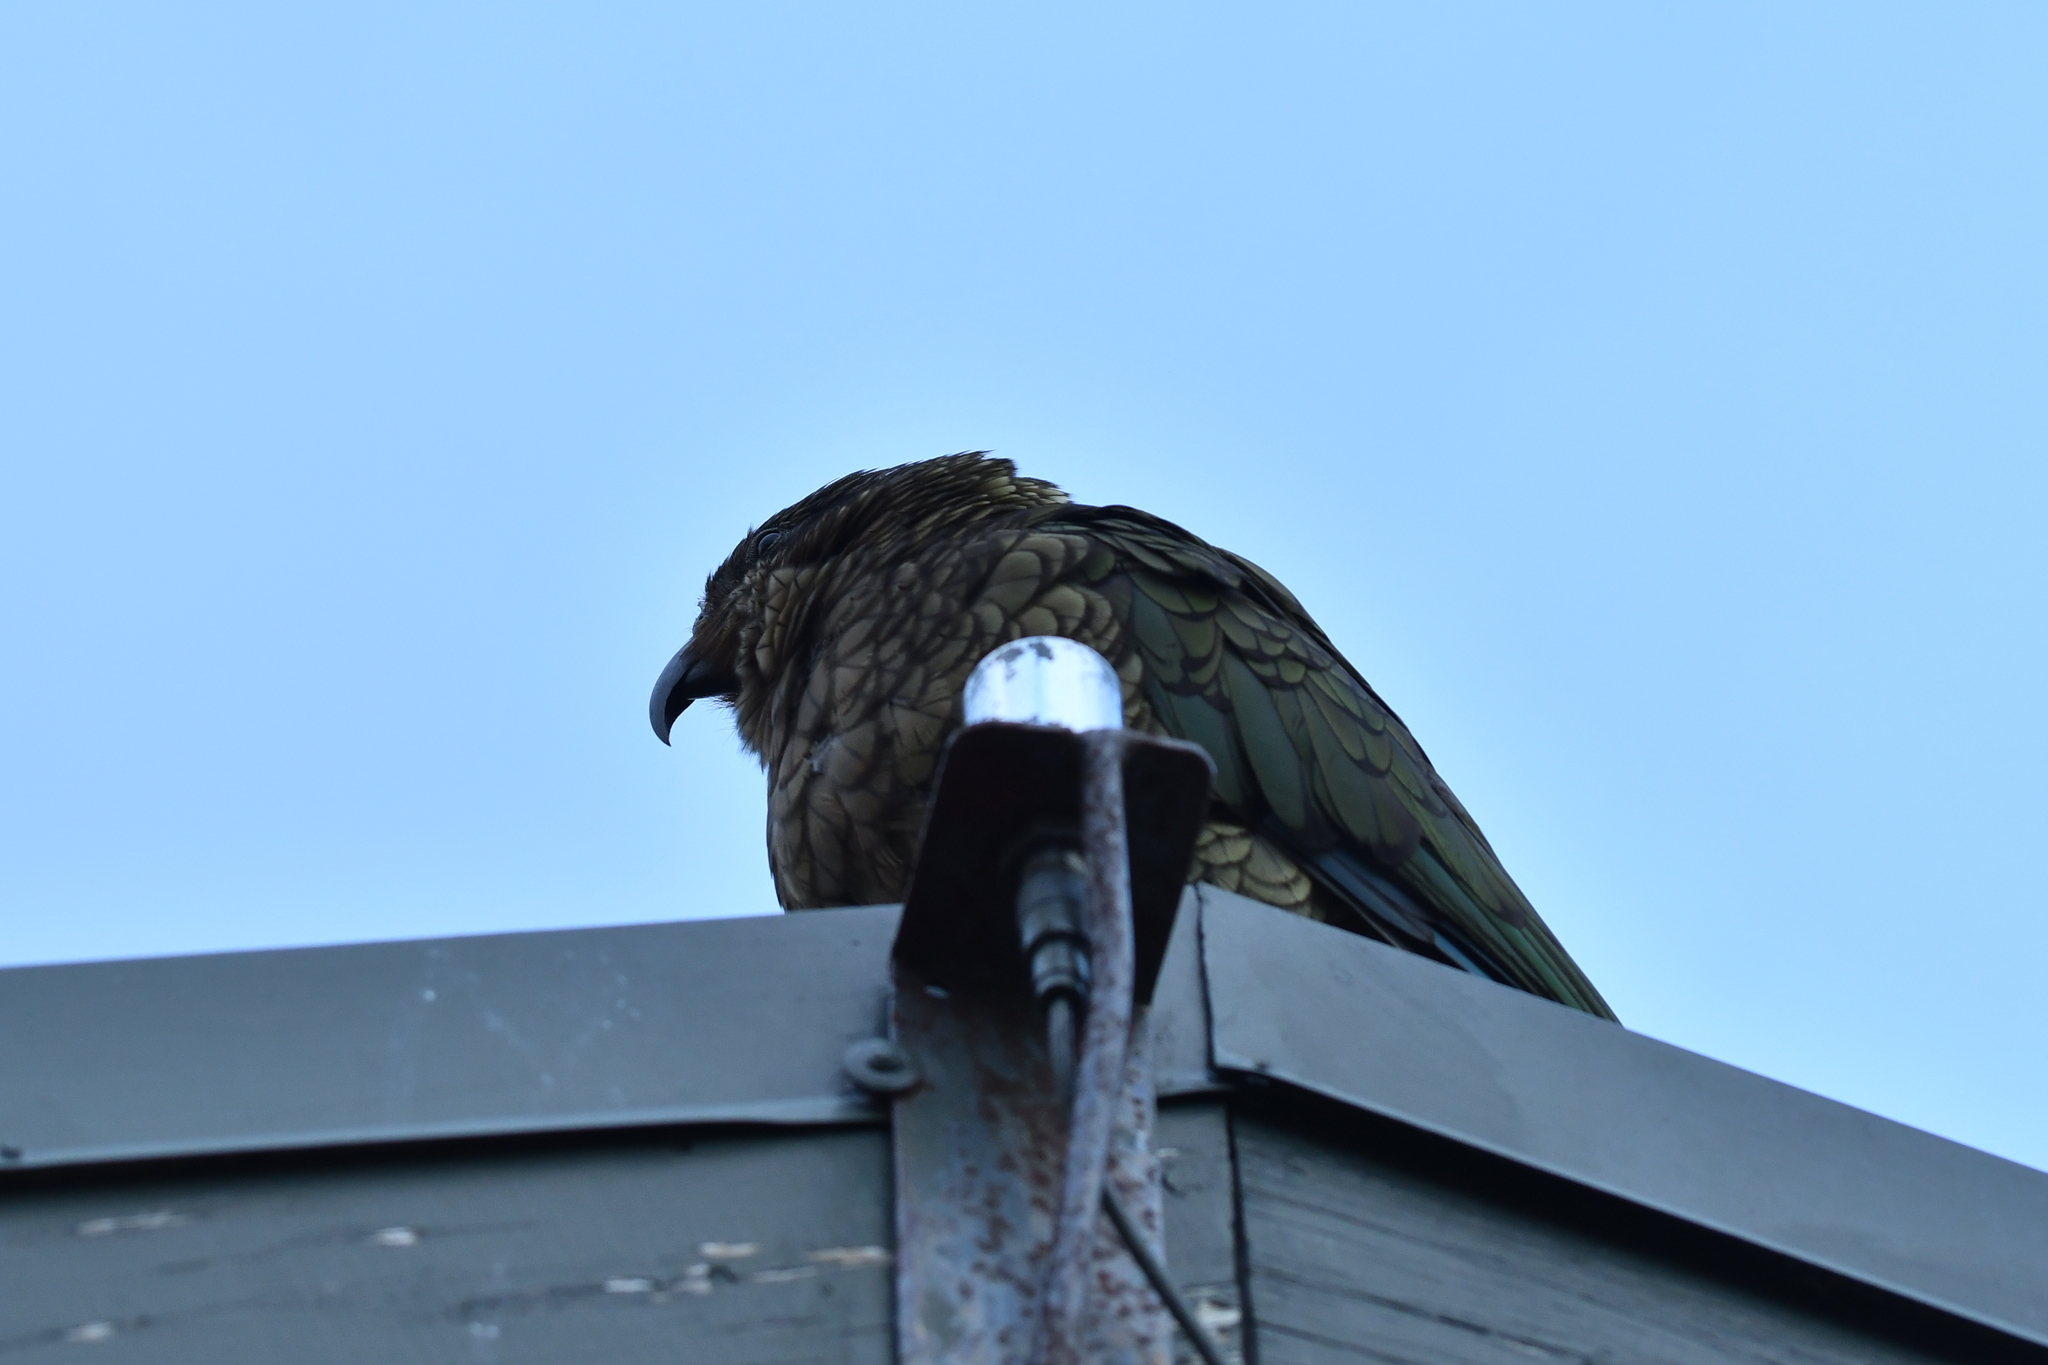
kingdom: Animalia
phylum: Chordata
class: Aves
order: Psittaciformes
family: Psittacidae
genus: Nestor
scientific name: Nestor notabilis
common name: Kea
